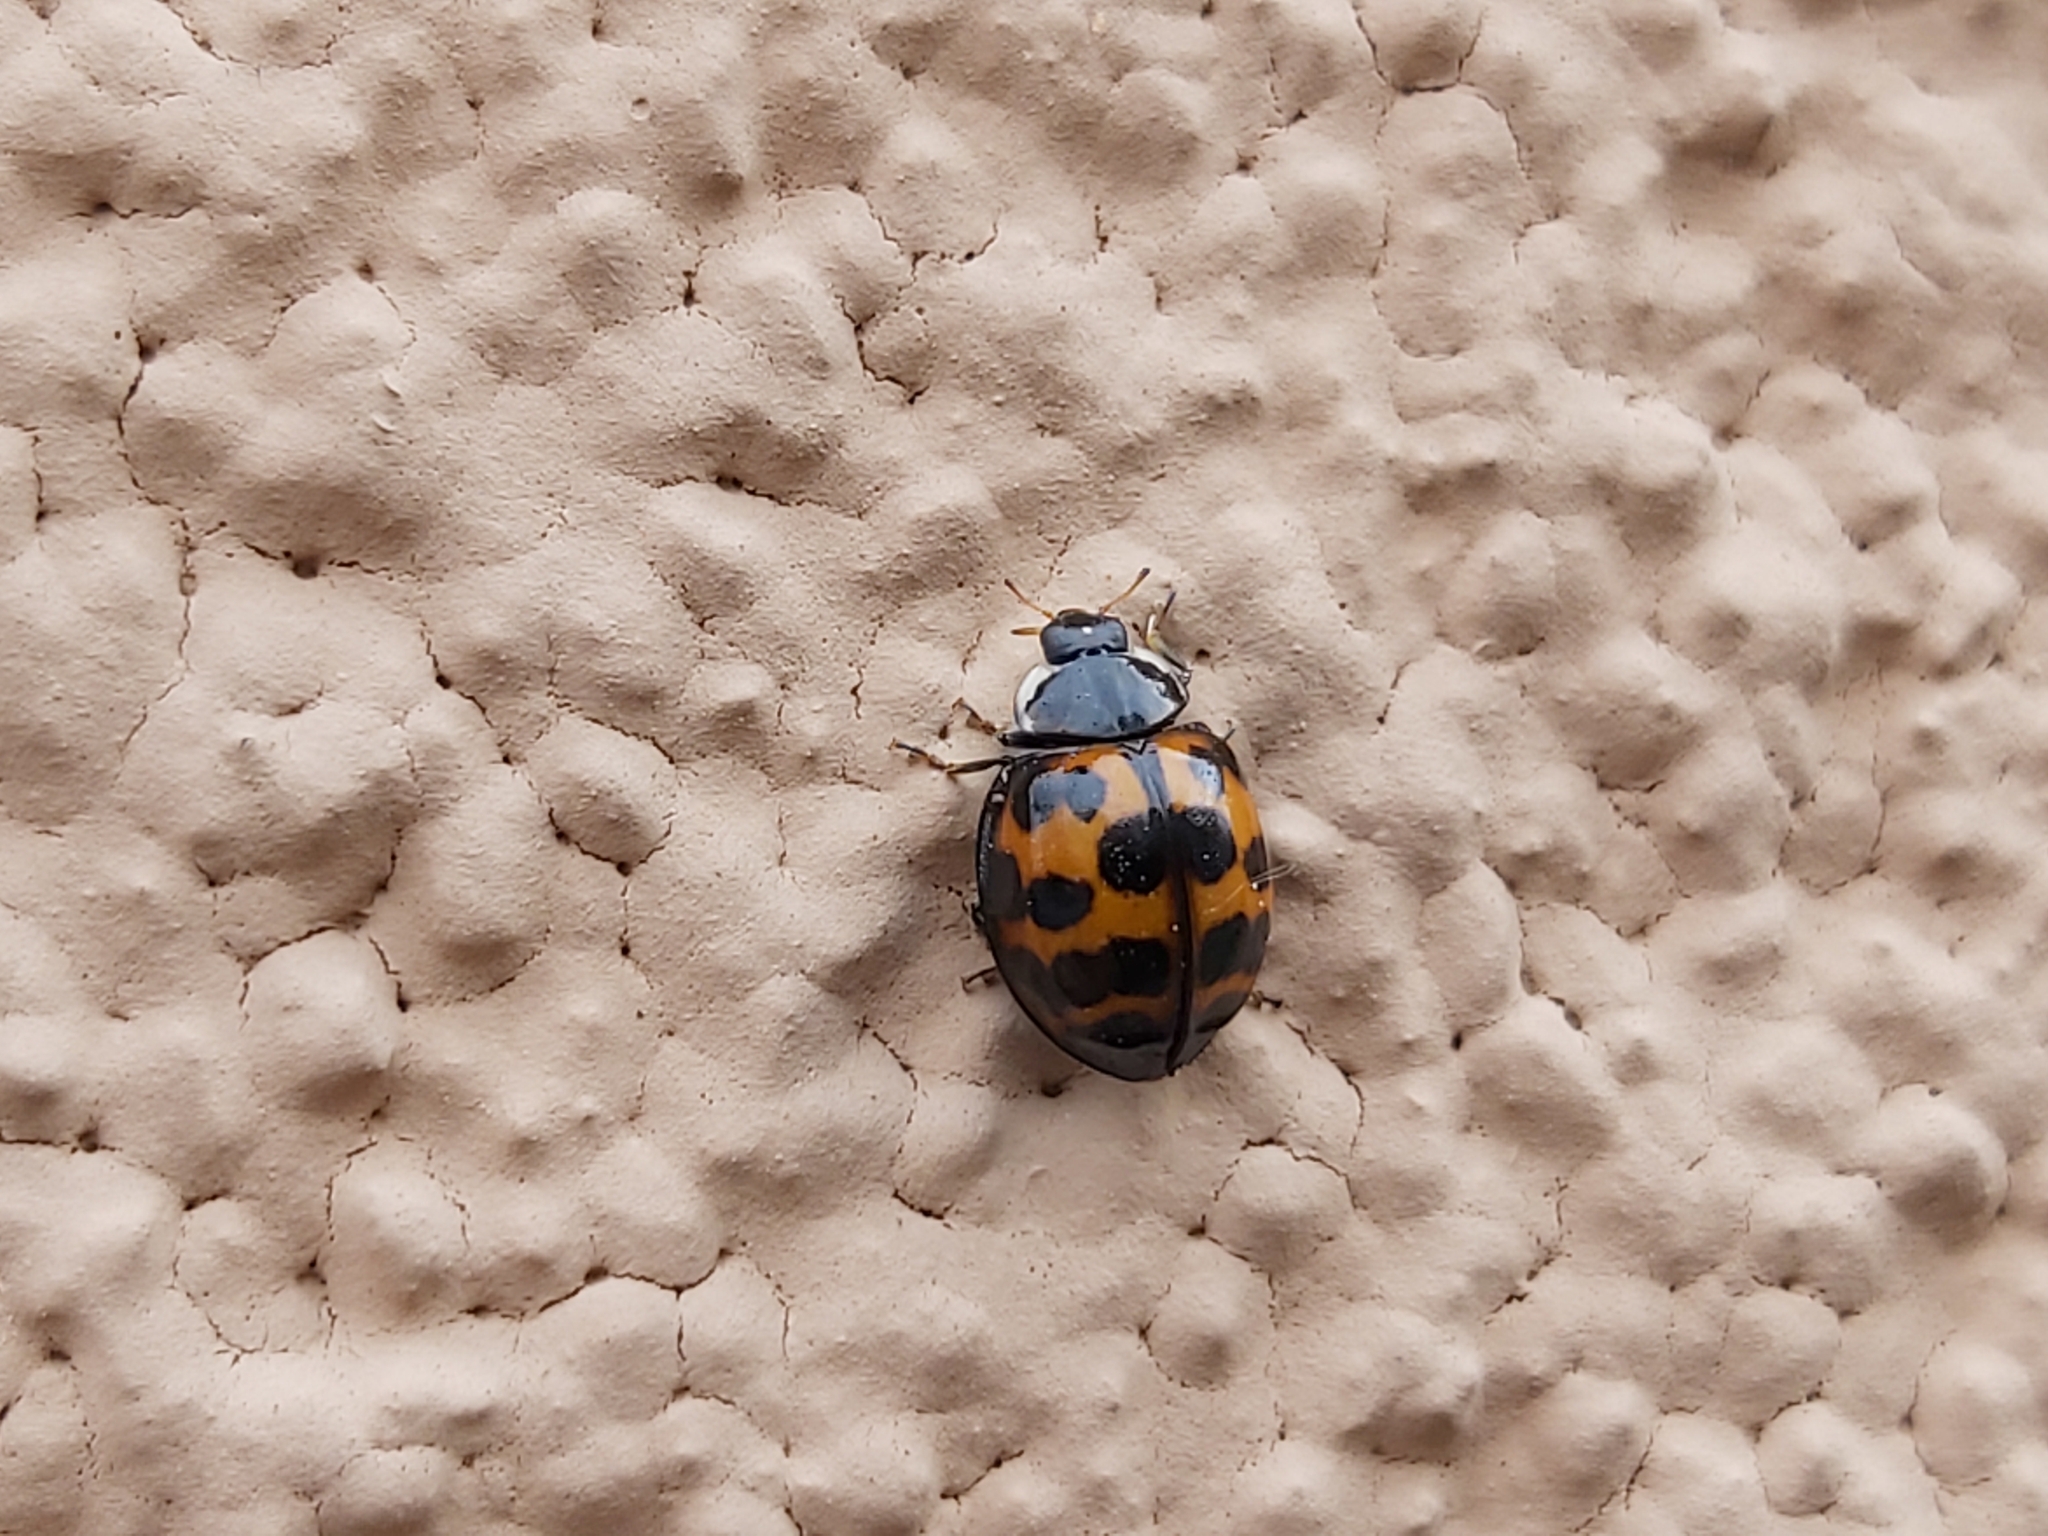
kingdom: Animalia
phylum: Arthropoda
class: Insecta
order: Coleoptera
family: Coccinellidae
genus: Harmonia
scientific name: Harmonia axyridis
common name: Harlequin ladybird
